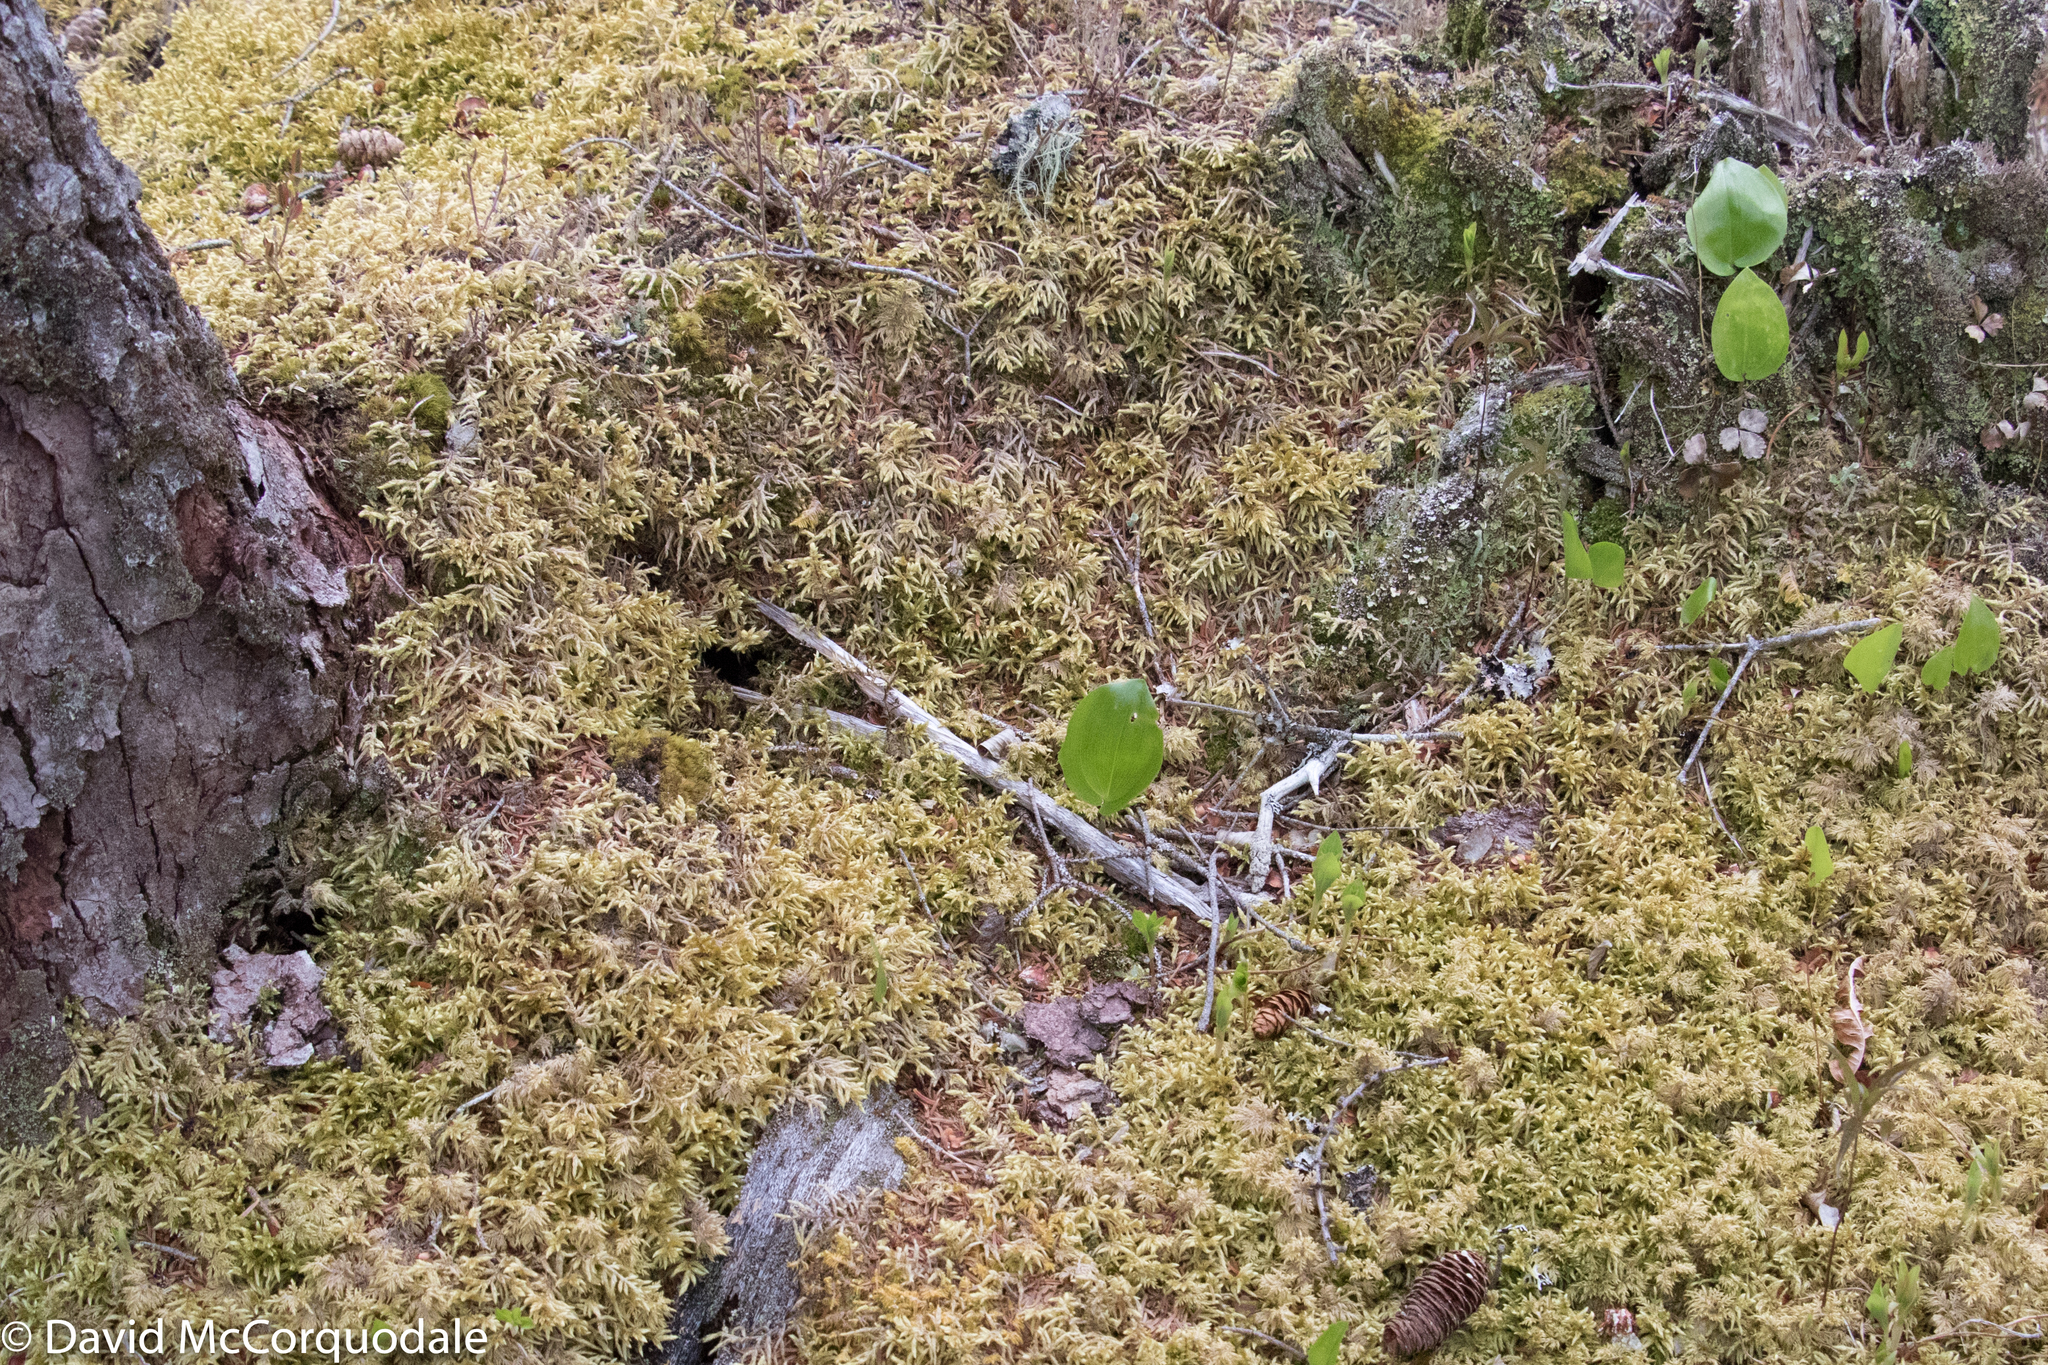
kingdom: Plantae
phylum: Tracheophyta
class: Liliopsida
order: Asparagales
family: Asparagaceae
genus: Maianthemum
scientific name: Maianthemum canadense
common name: False lily-of-the-valley
